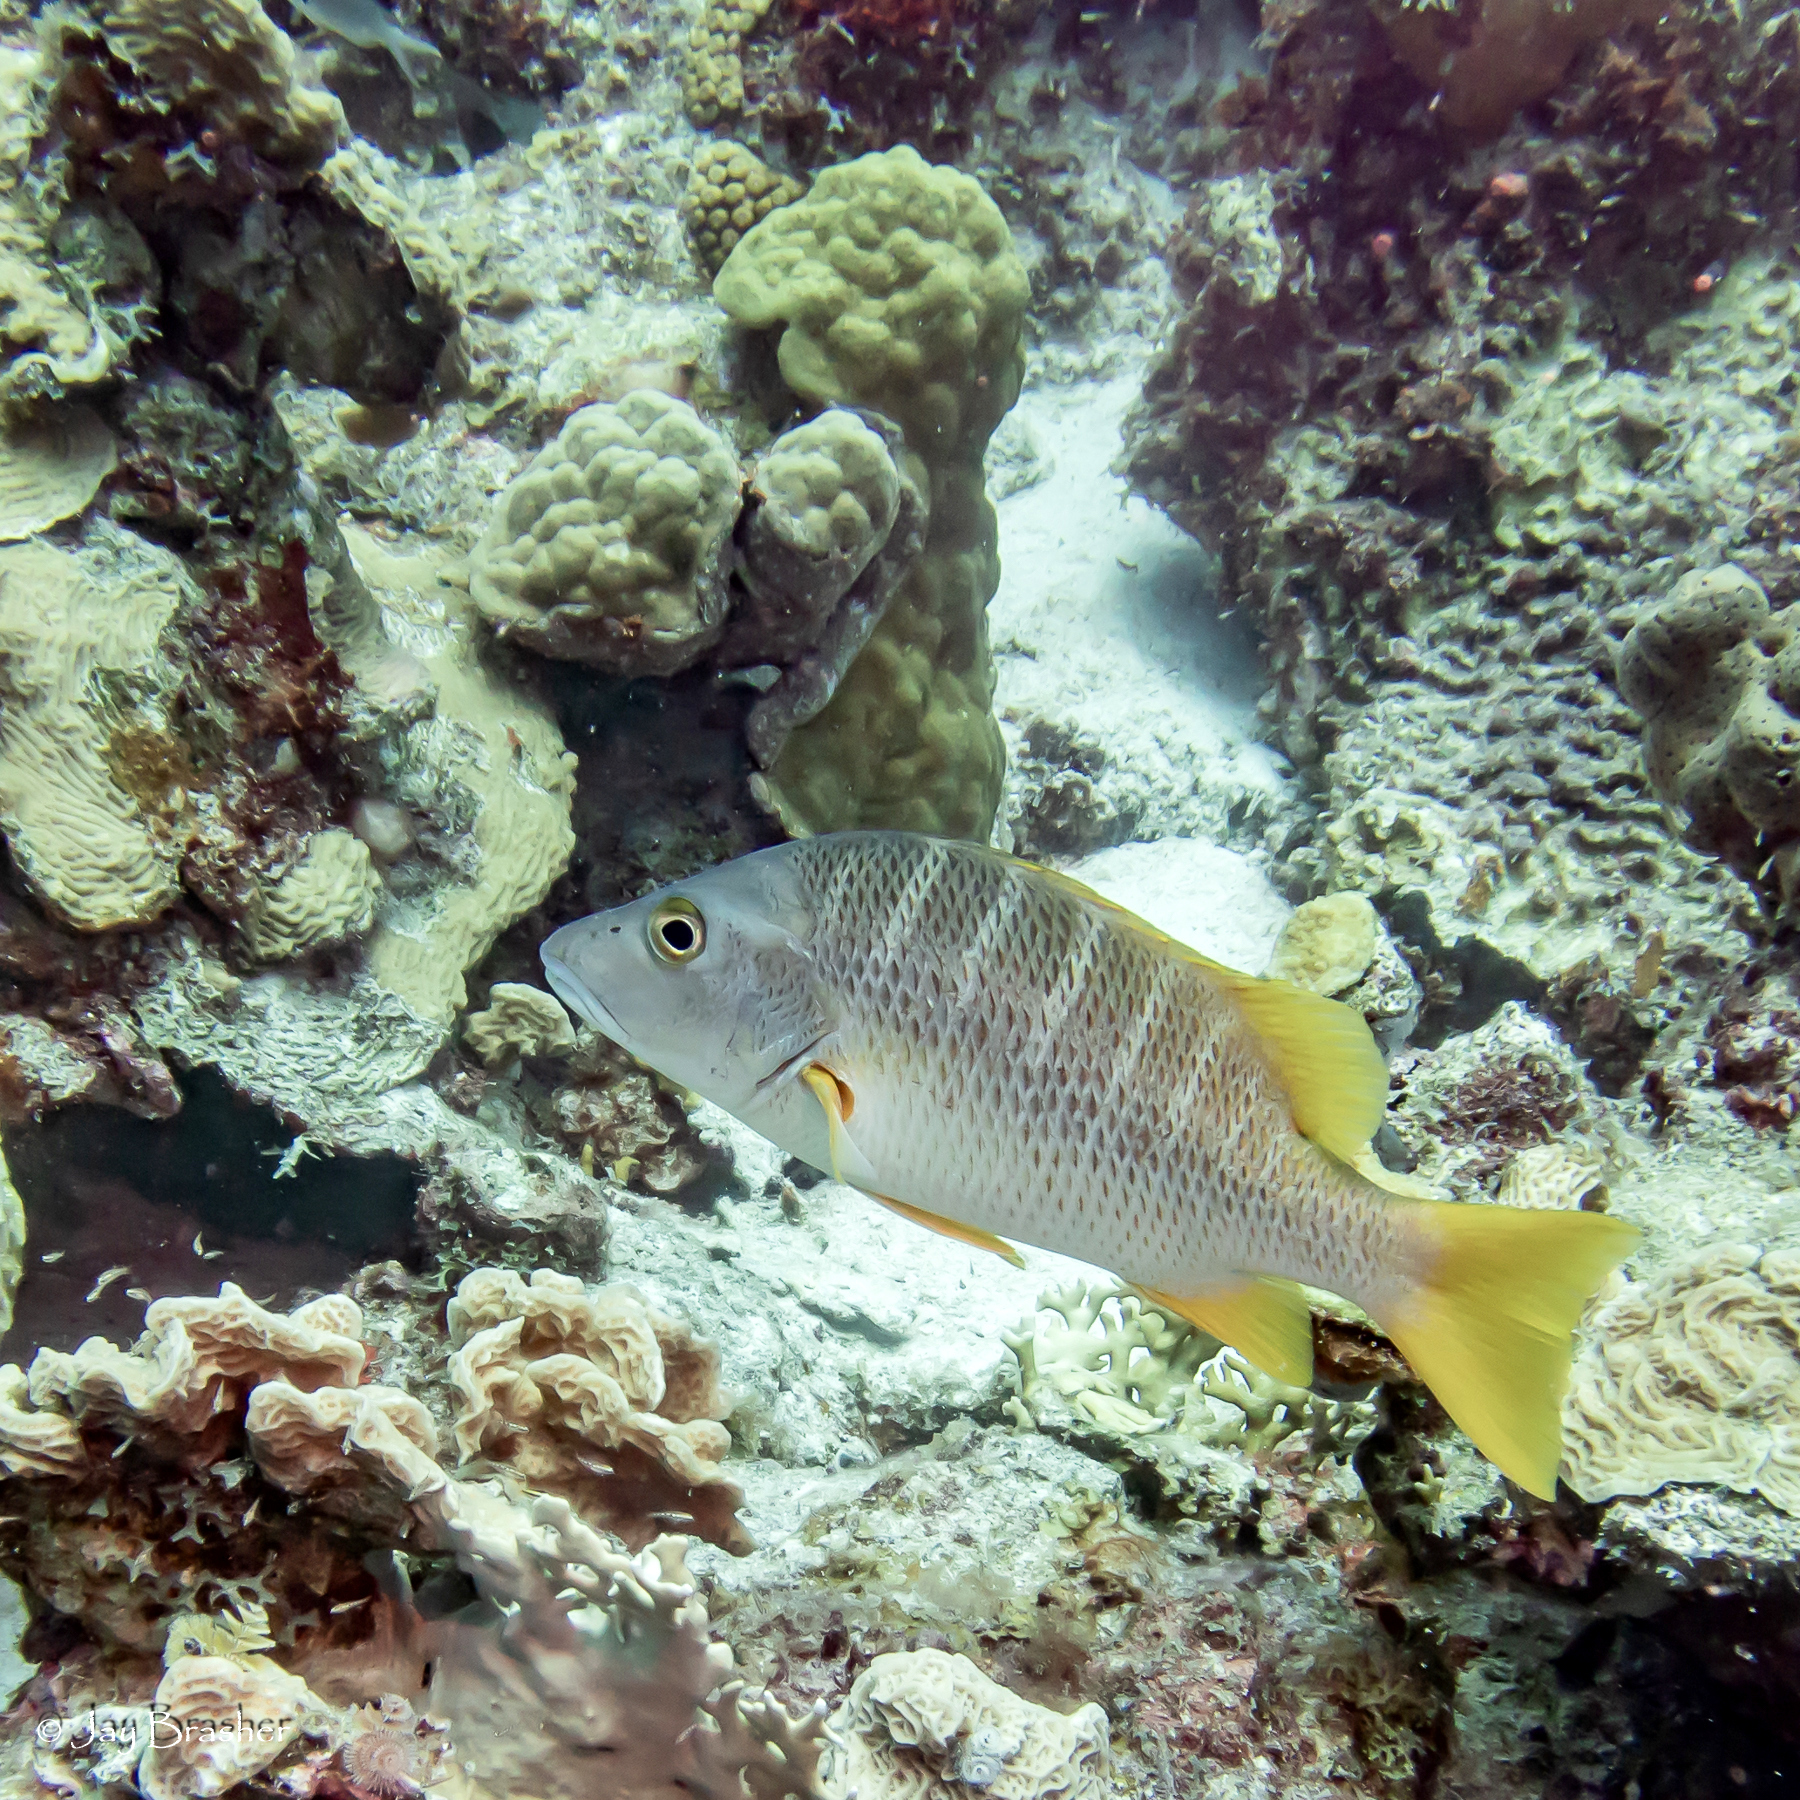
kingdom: Animalia
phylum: Chordata
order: Perciformes
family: Lutjanidae
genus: Lutjanus
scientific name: Lutjanus apodus
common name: Schoolmaster
